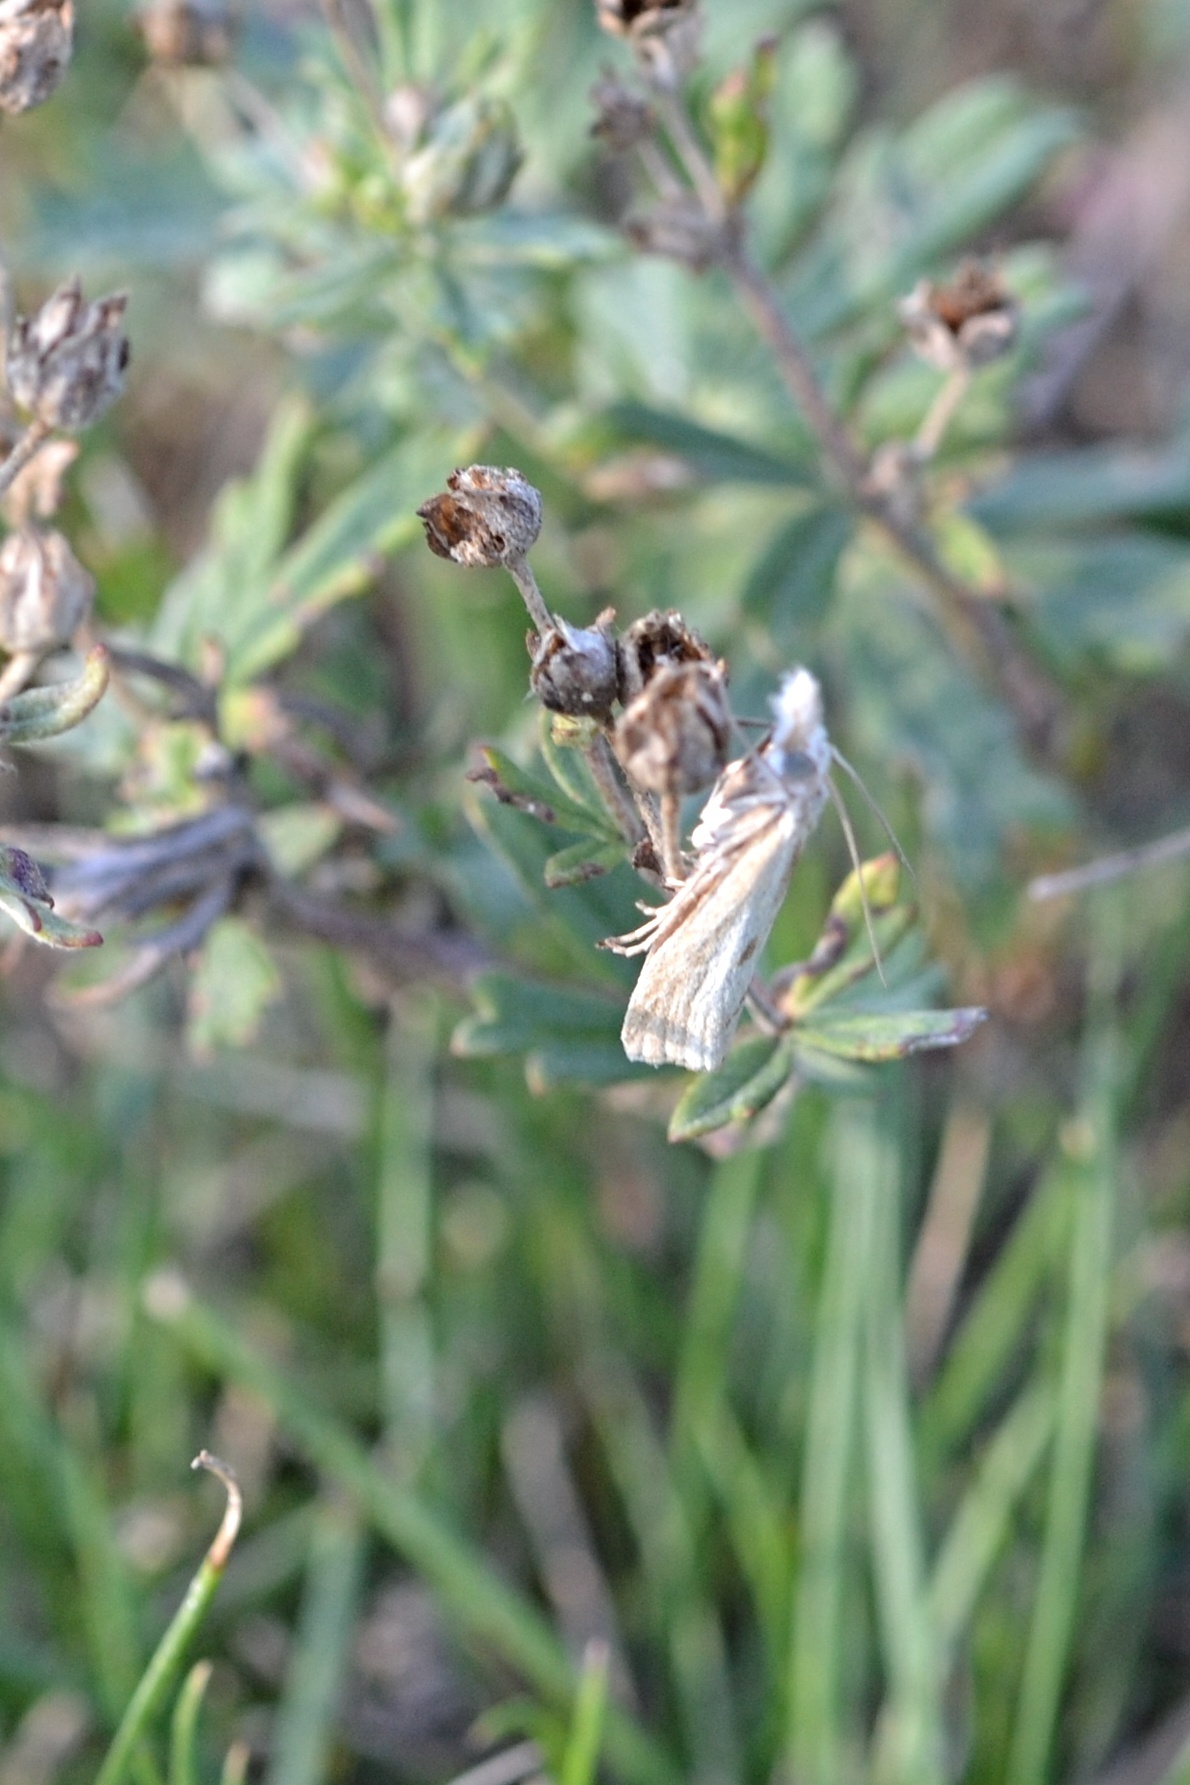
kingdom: Animalia
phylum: Arthropoda
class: Insecta
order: Lepidoptera
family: Crambidae
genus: Agriphila
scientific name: Agriphila inquinatella
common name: Barred grass-veneer
